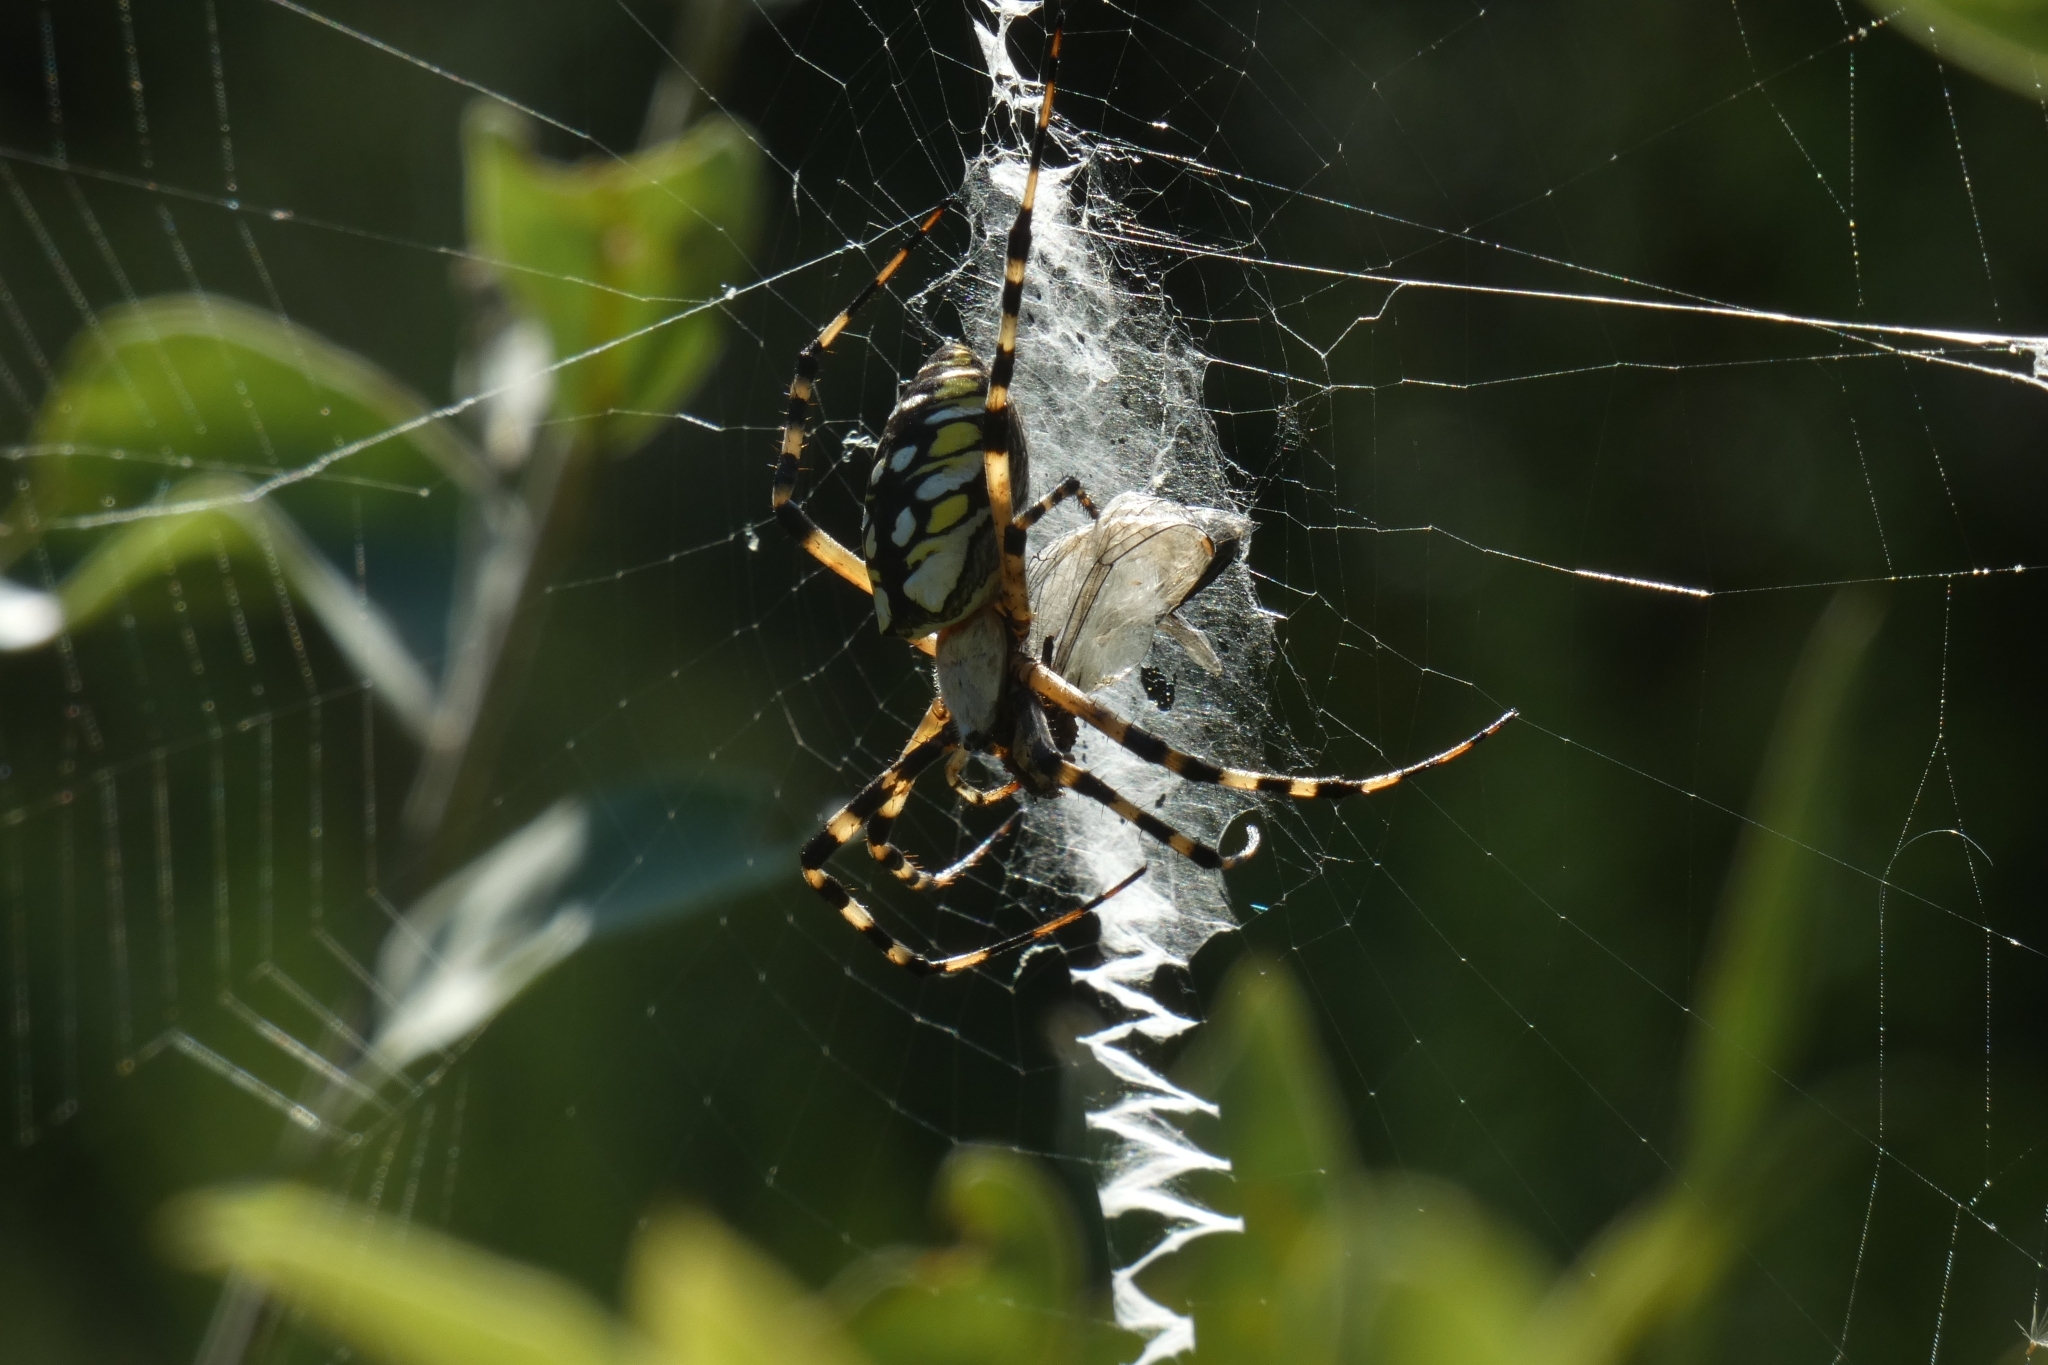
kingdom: Animalia
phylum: Arthropoda
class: Arachnida
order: Araneae
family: Araneidae
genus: Argiope
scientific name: Argiope aurantia
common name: Orb weavers
